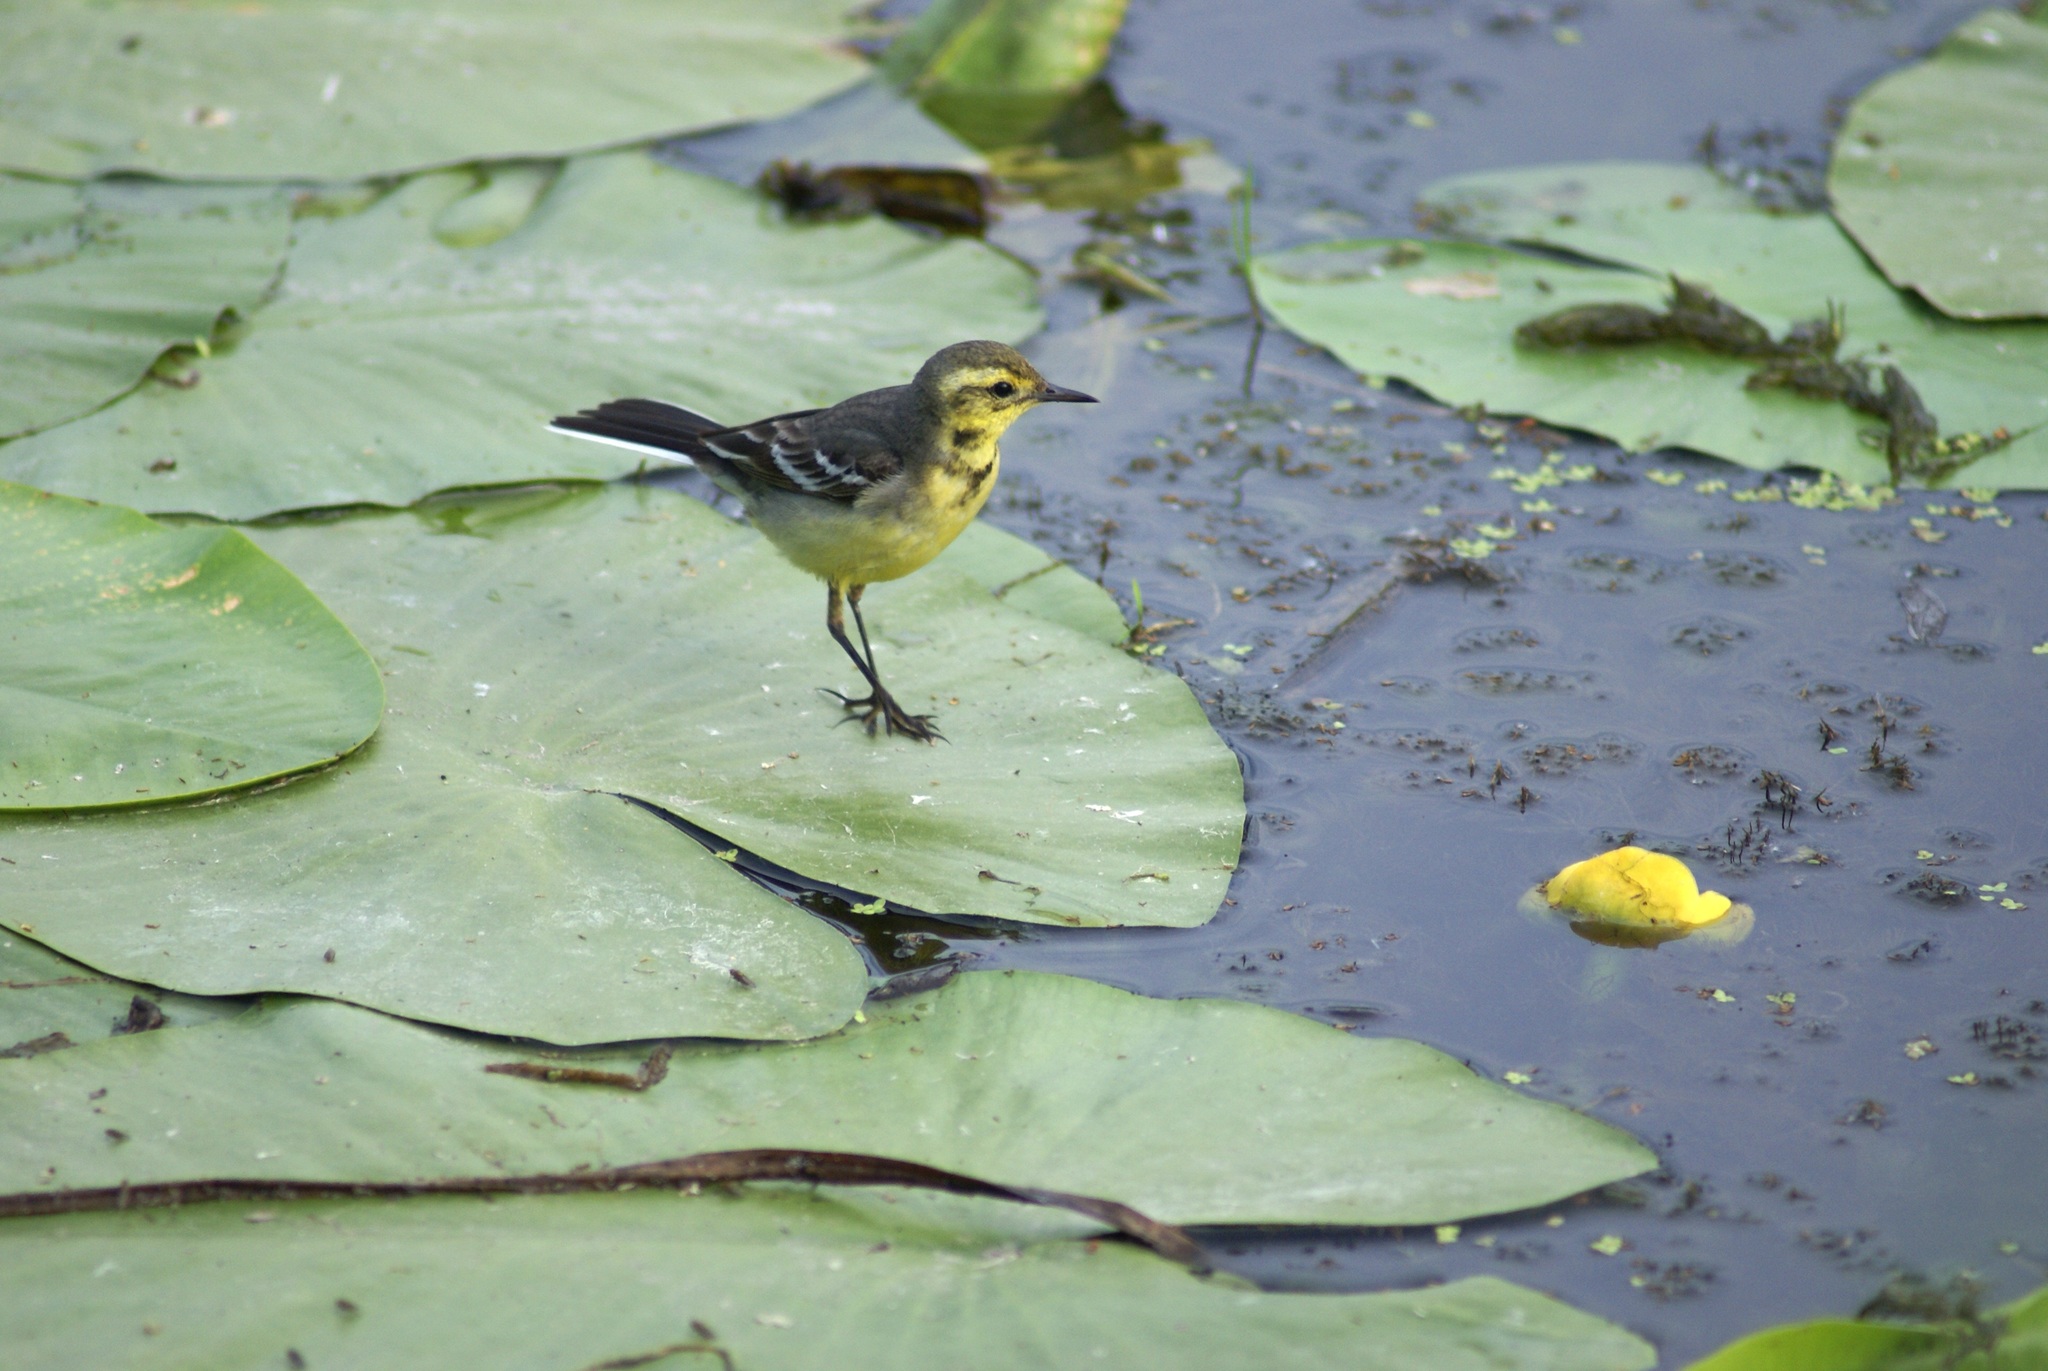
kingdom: Animalia
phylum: Chordata
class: Aves
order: Passeriformes
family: Motacillidae
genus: Motacilla
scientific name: Motacilla citreola
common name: Citrine wagtail
